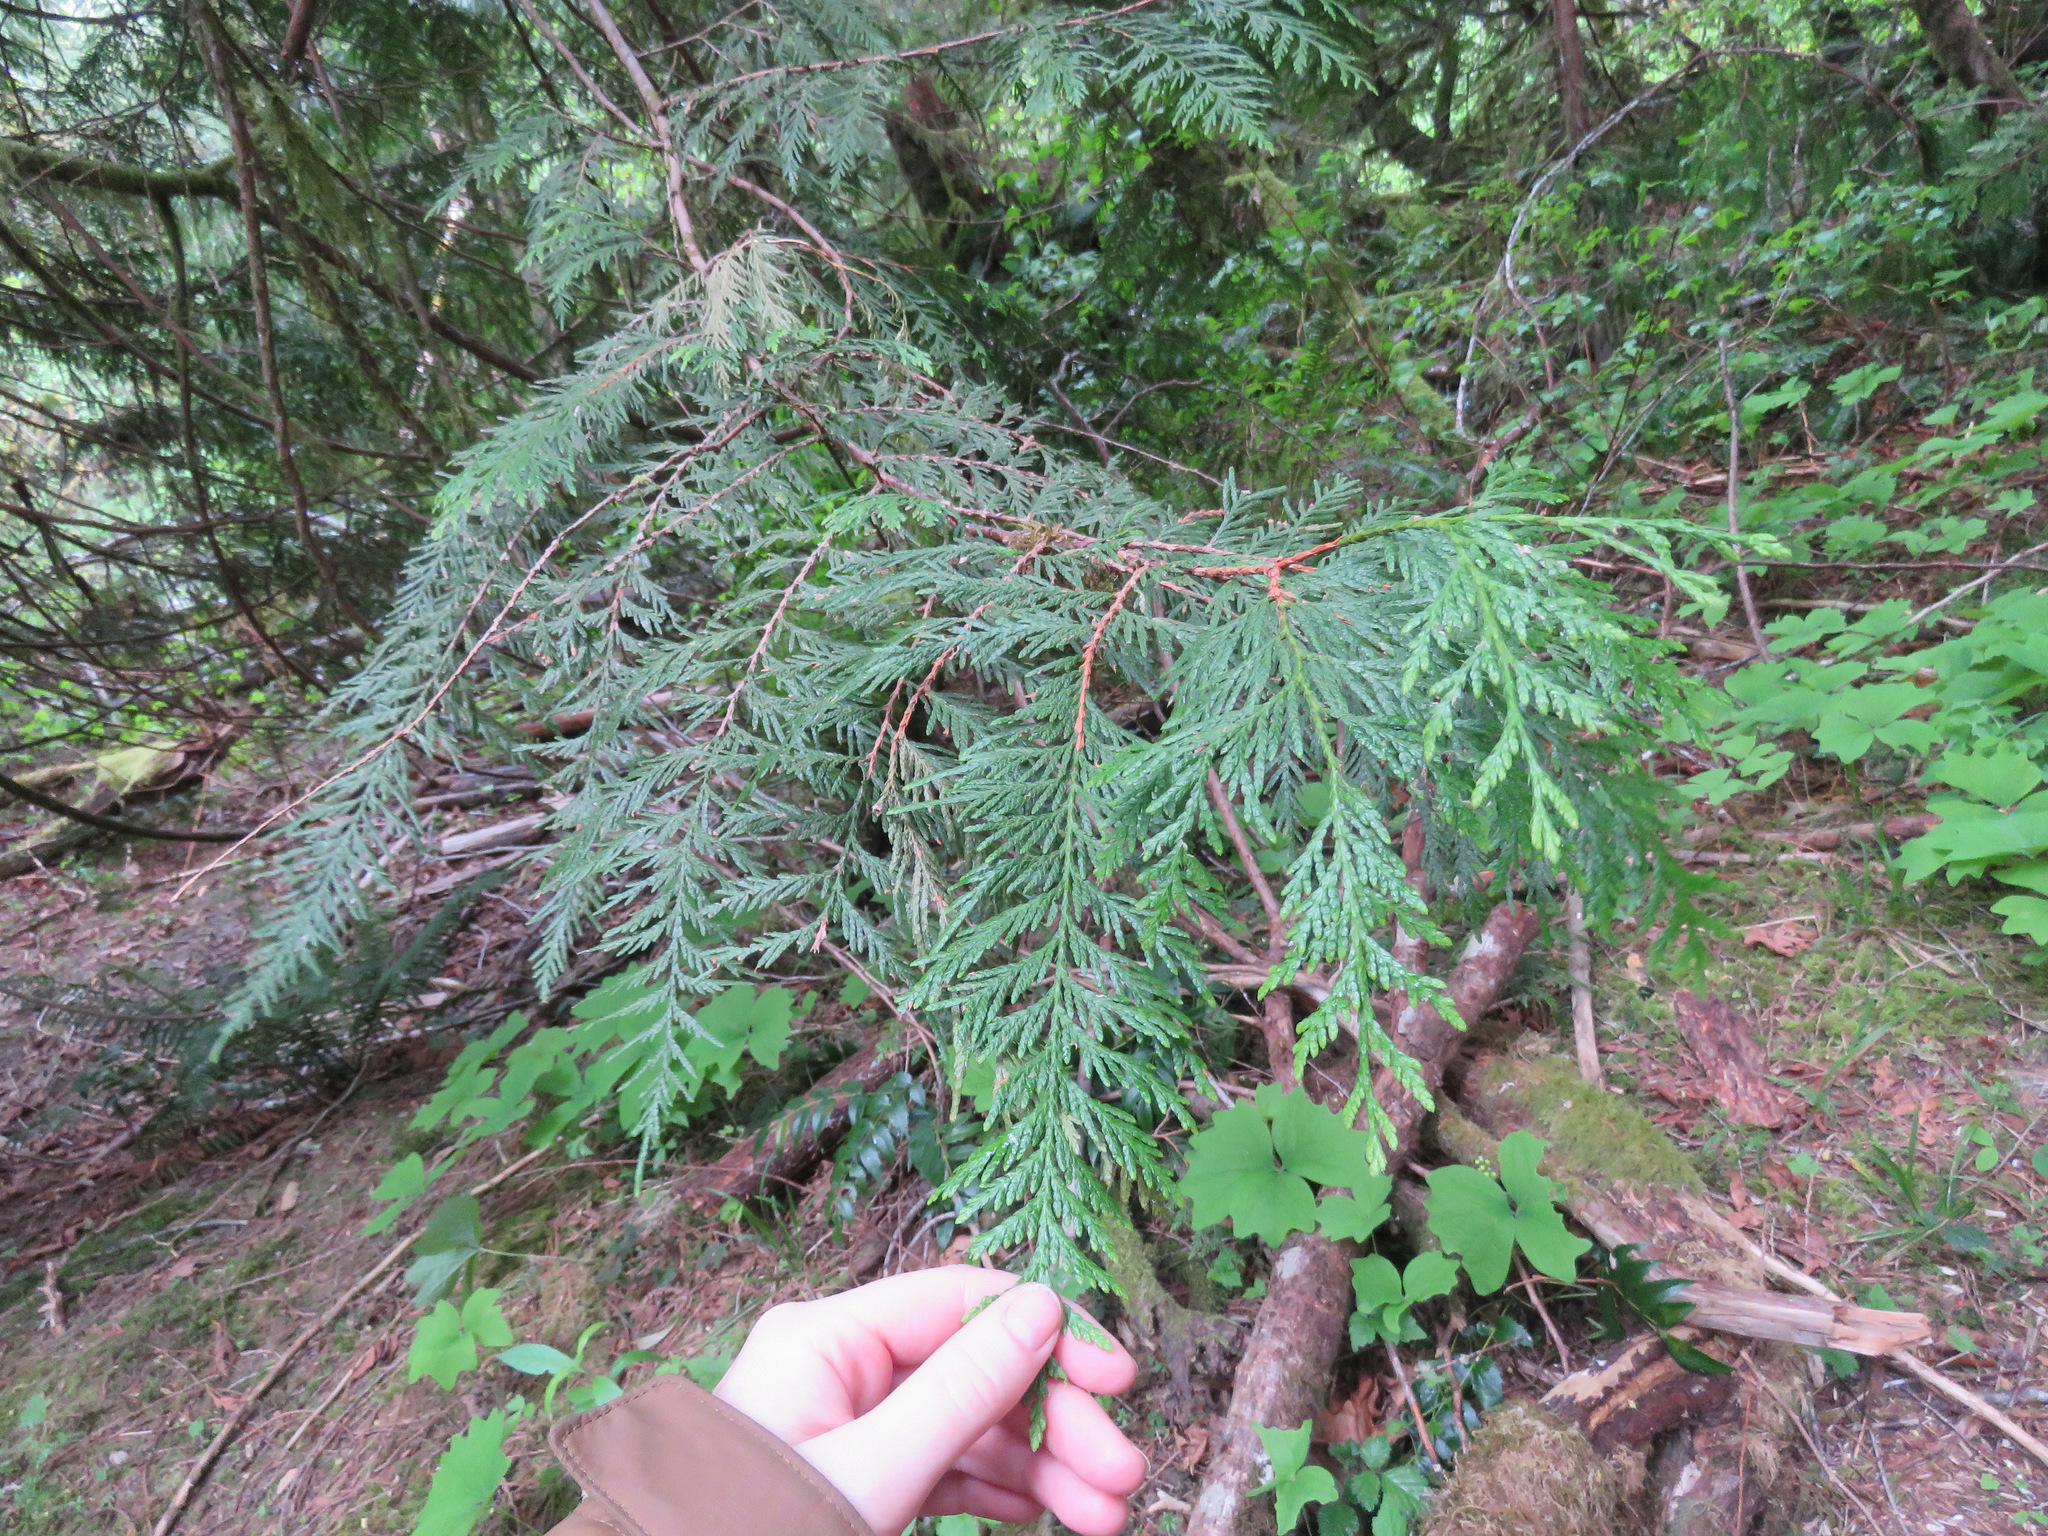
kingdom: Plantae
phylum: Tracheophyta
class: Pinopsida
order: Pinales
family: Cupressaceae
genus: Thuja
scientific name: Thuja plicata
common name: Western red-cedar
